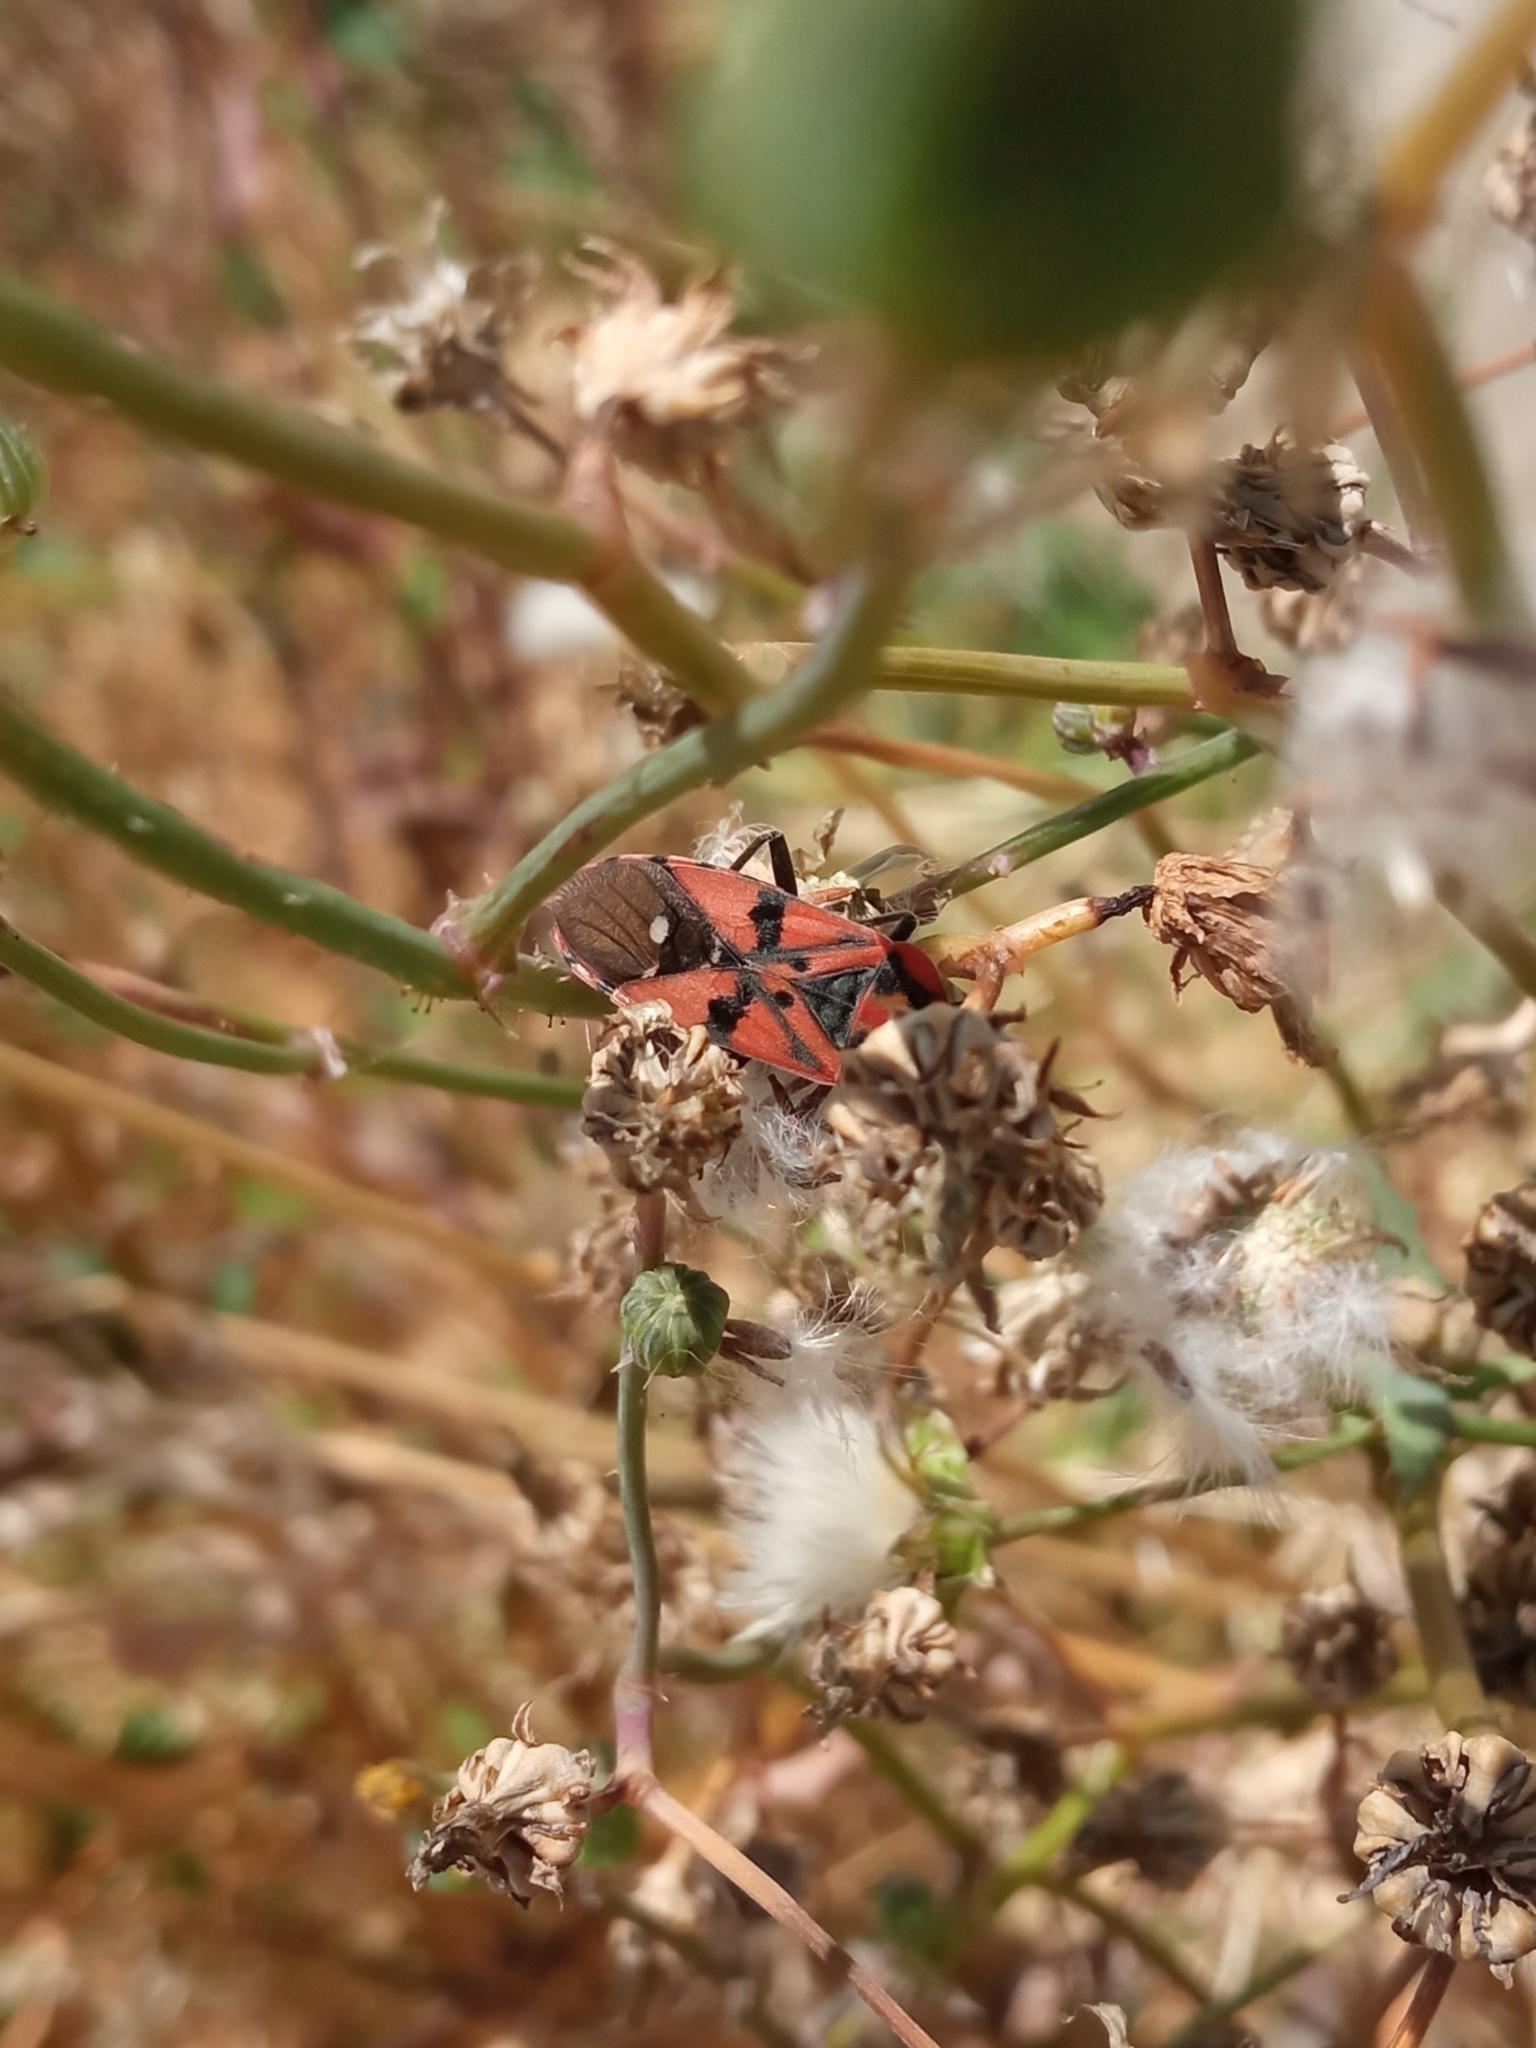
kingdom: Animalia
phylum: Arthropoda
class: Insecta
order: Hemiptera
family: Lygaeidae
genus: Spilostethus
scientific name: Spilostethus pandurus
